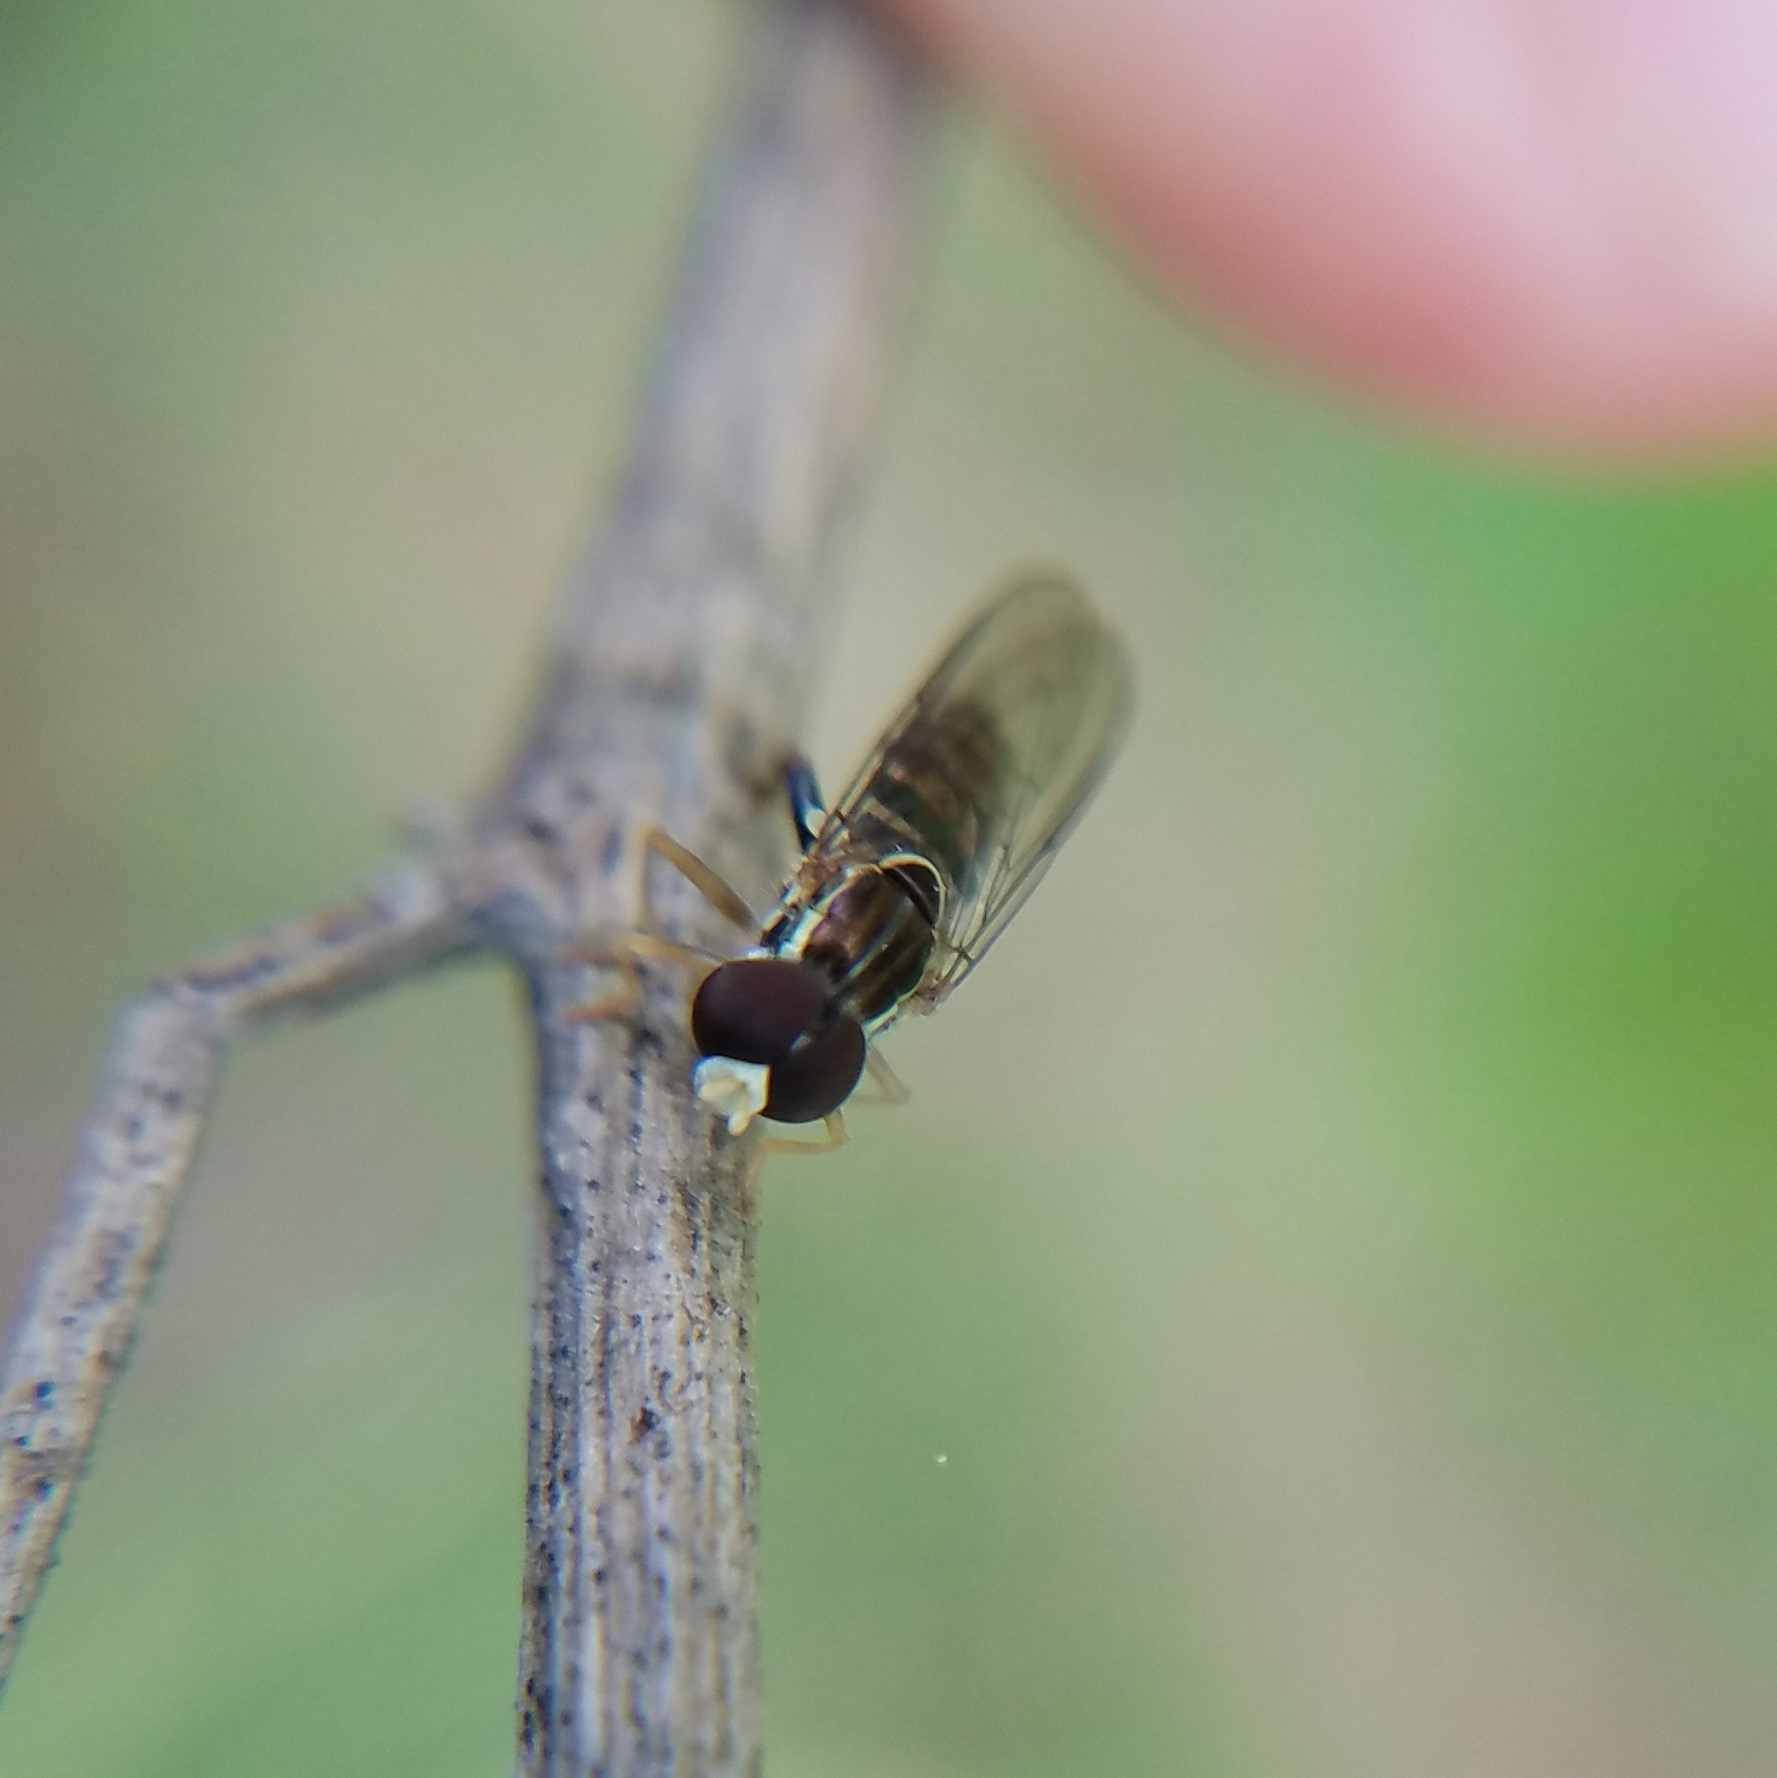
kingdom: Animalia
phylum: Arthropoda
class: Insecta
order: Diptera
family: Syrphidae
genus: Toxomerus
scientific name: Toxomerus geminatus
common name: Eastern calligrapher
